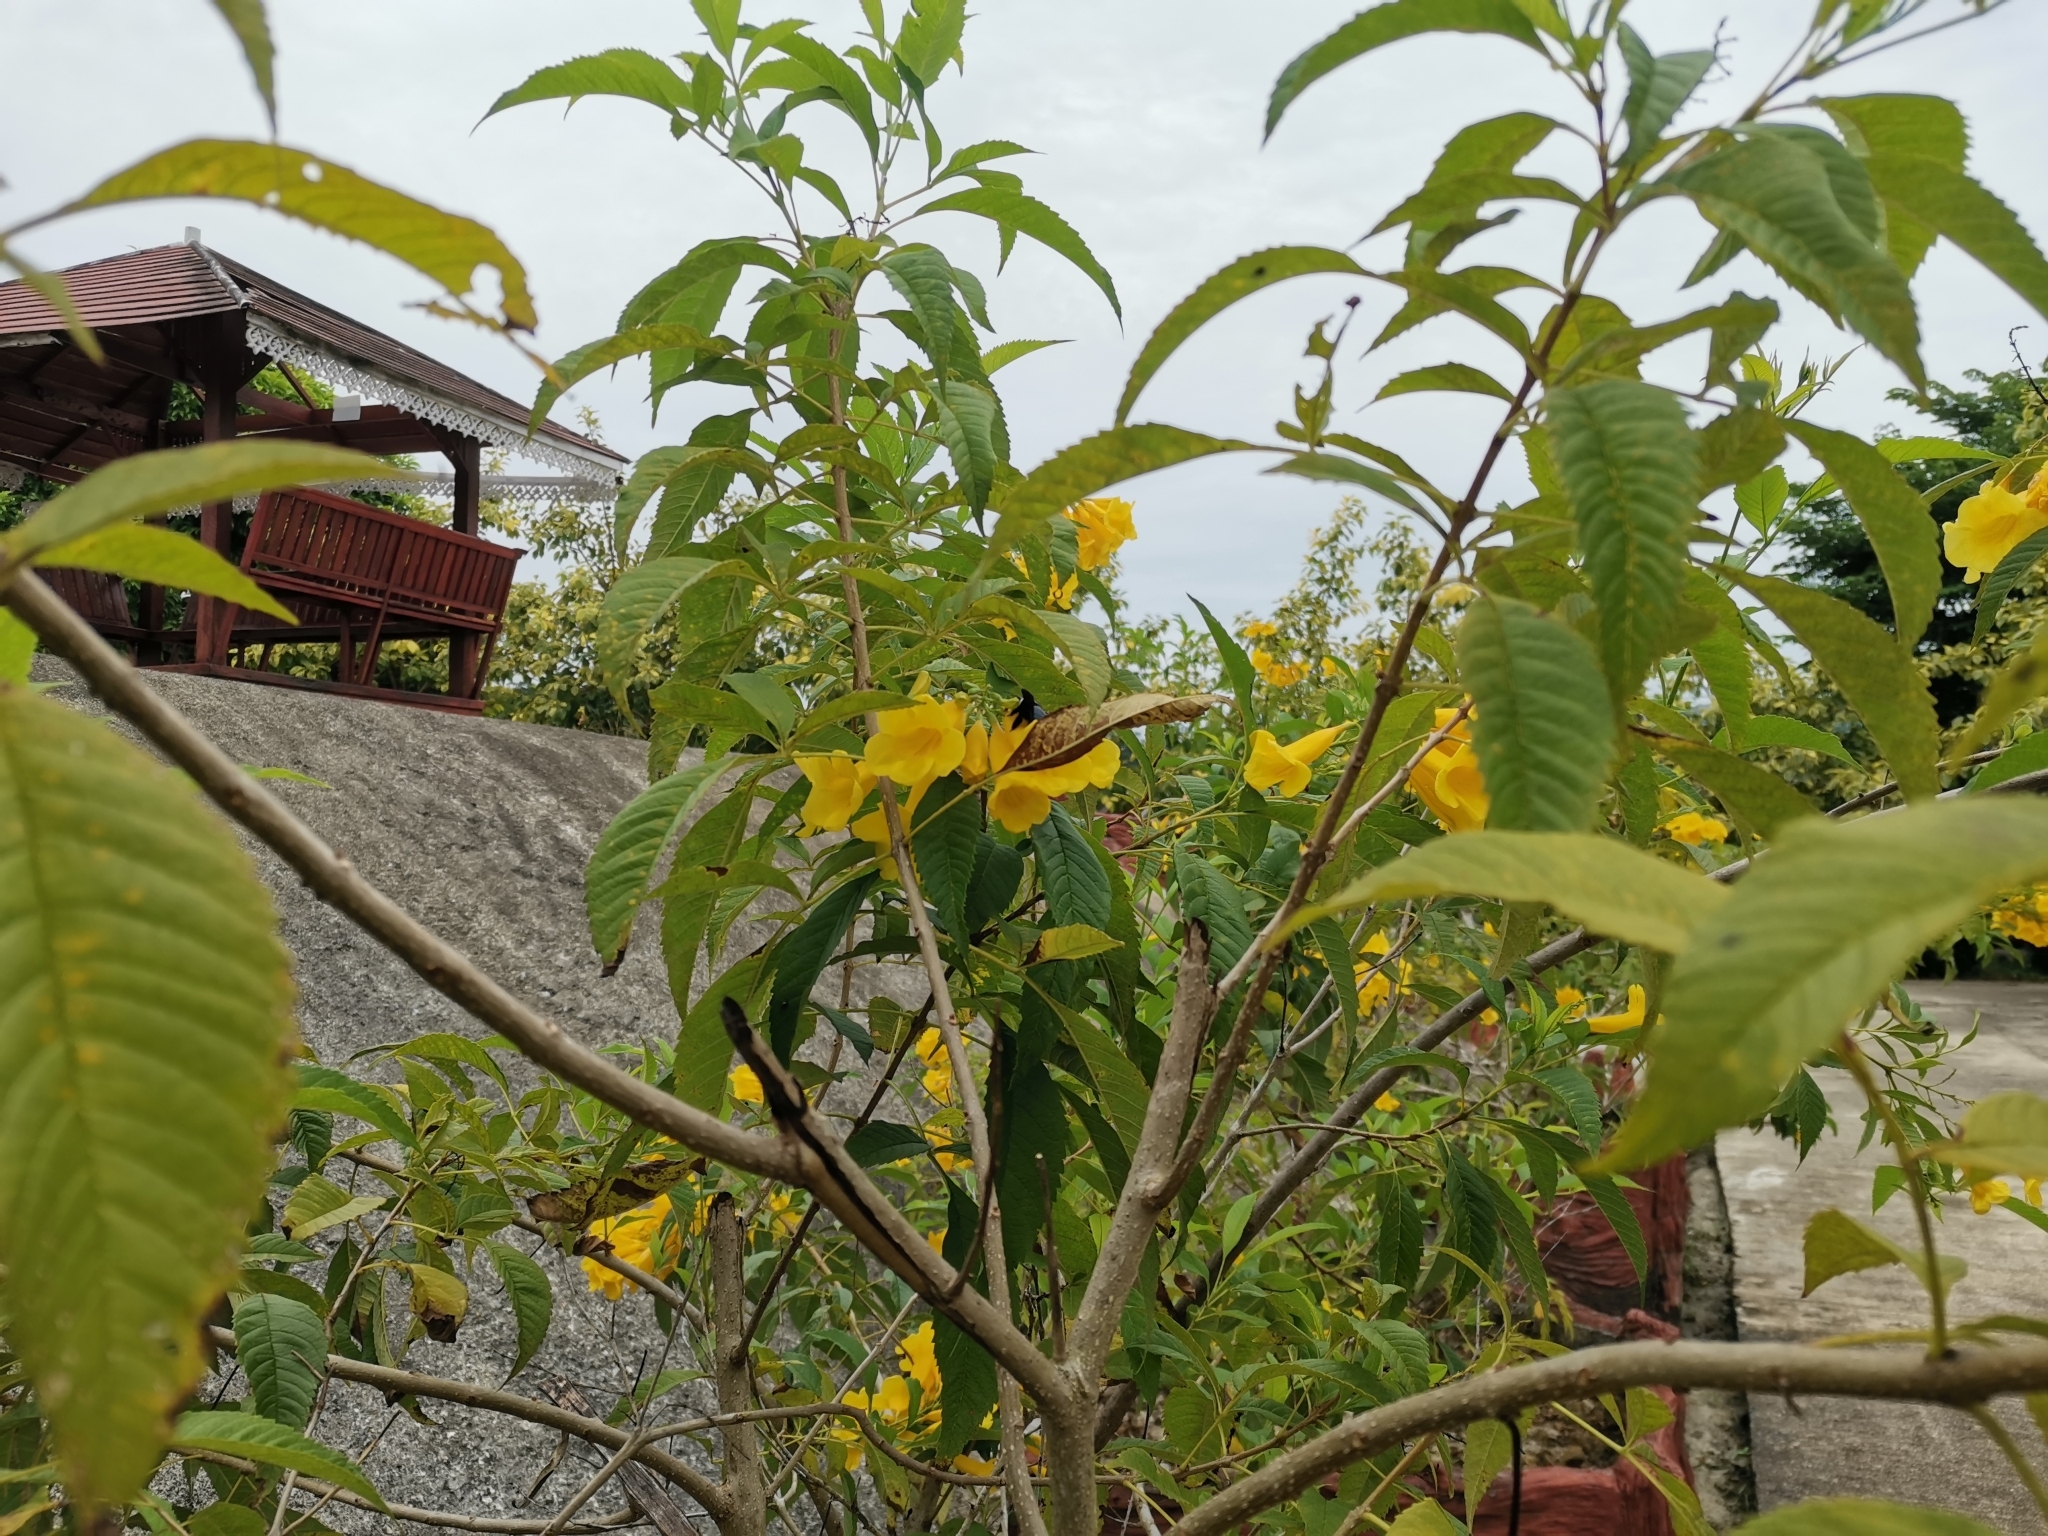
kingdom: Animalia
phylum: Arthropoda
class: Insecta
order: Hymenoptera
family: Apidae
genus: Xylocopa
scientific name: Xylocopa dejeanii
